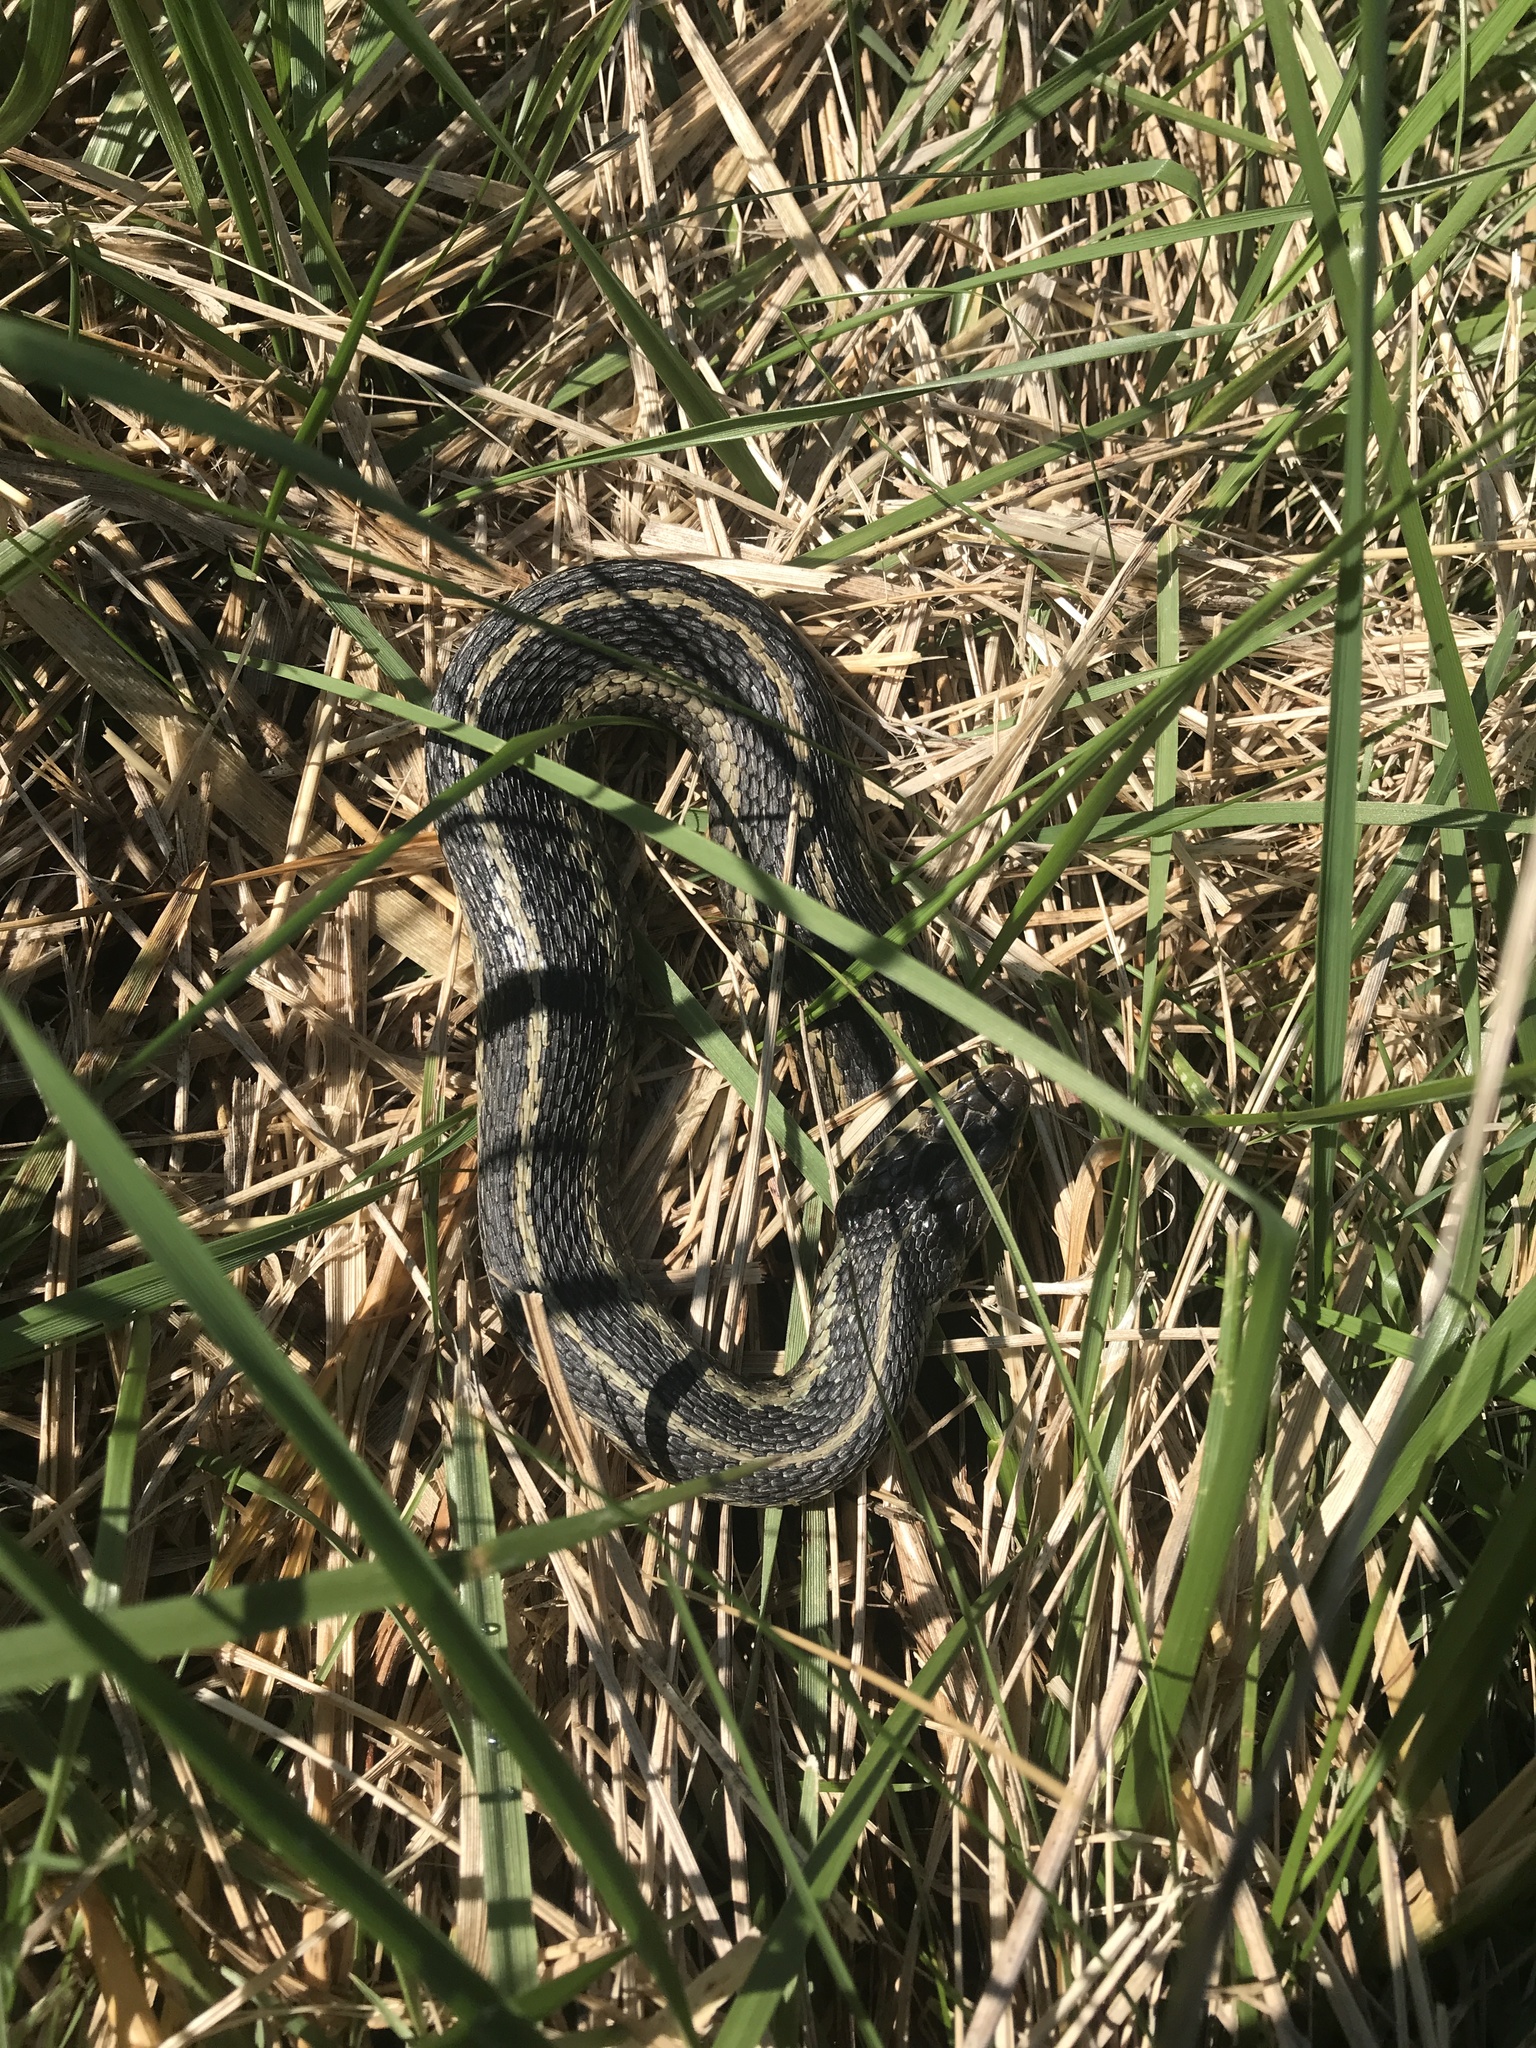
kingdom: Animalia
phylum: Chordata
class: Squamata
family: Colubridae
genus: Thamnophis
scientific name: Thamnophis sirtalis
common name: Common garter snake
